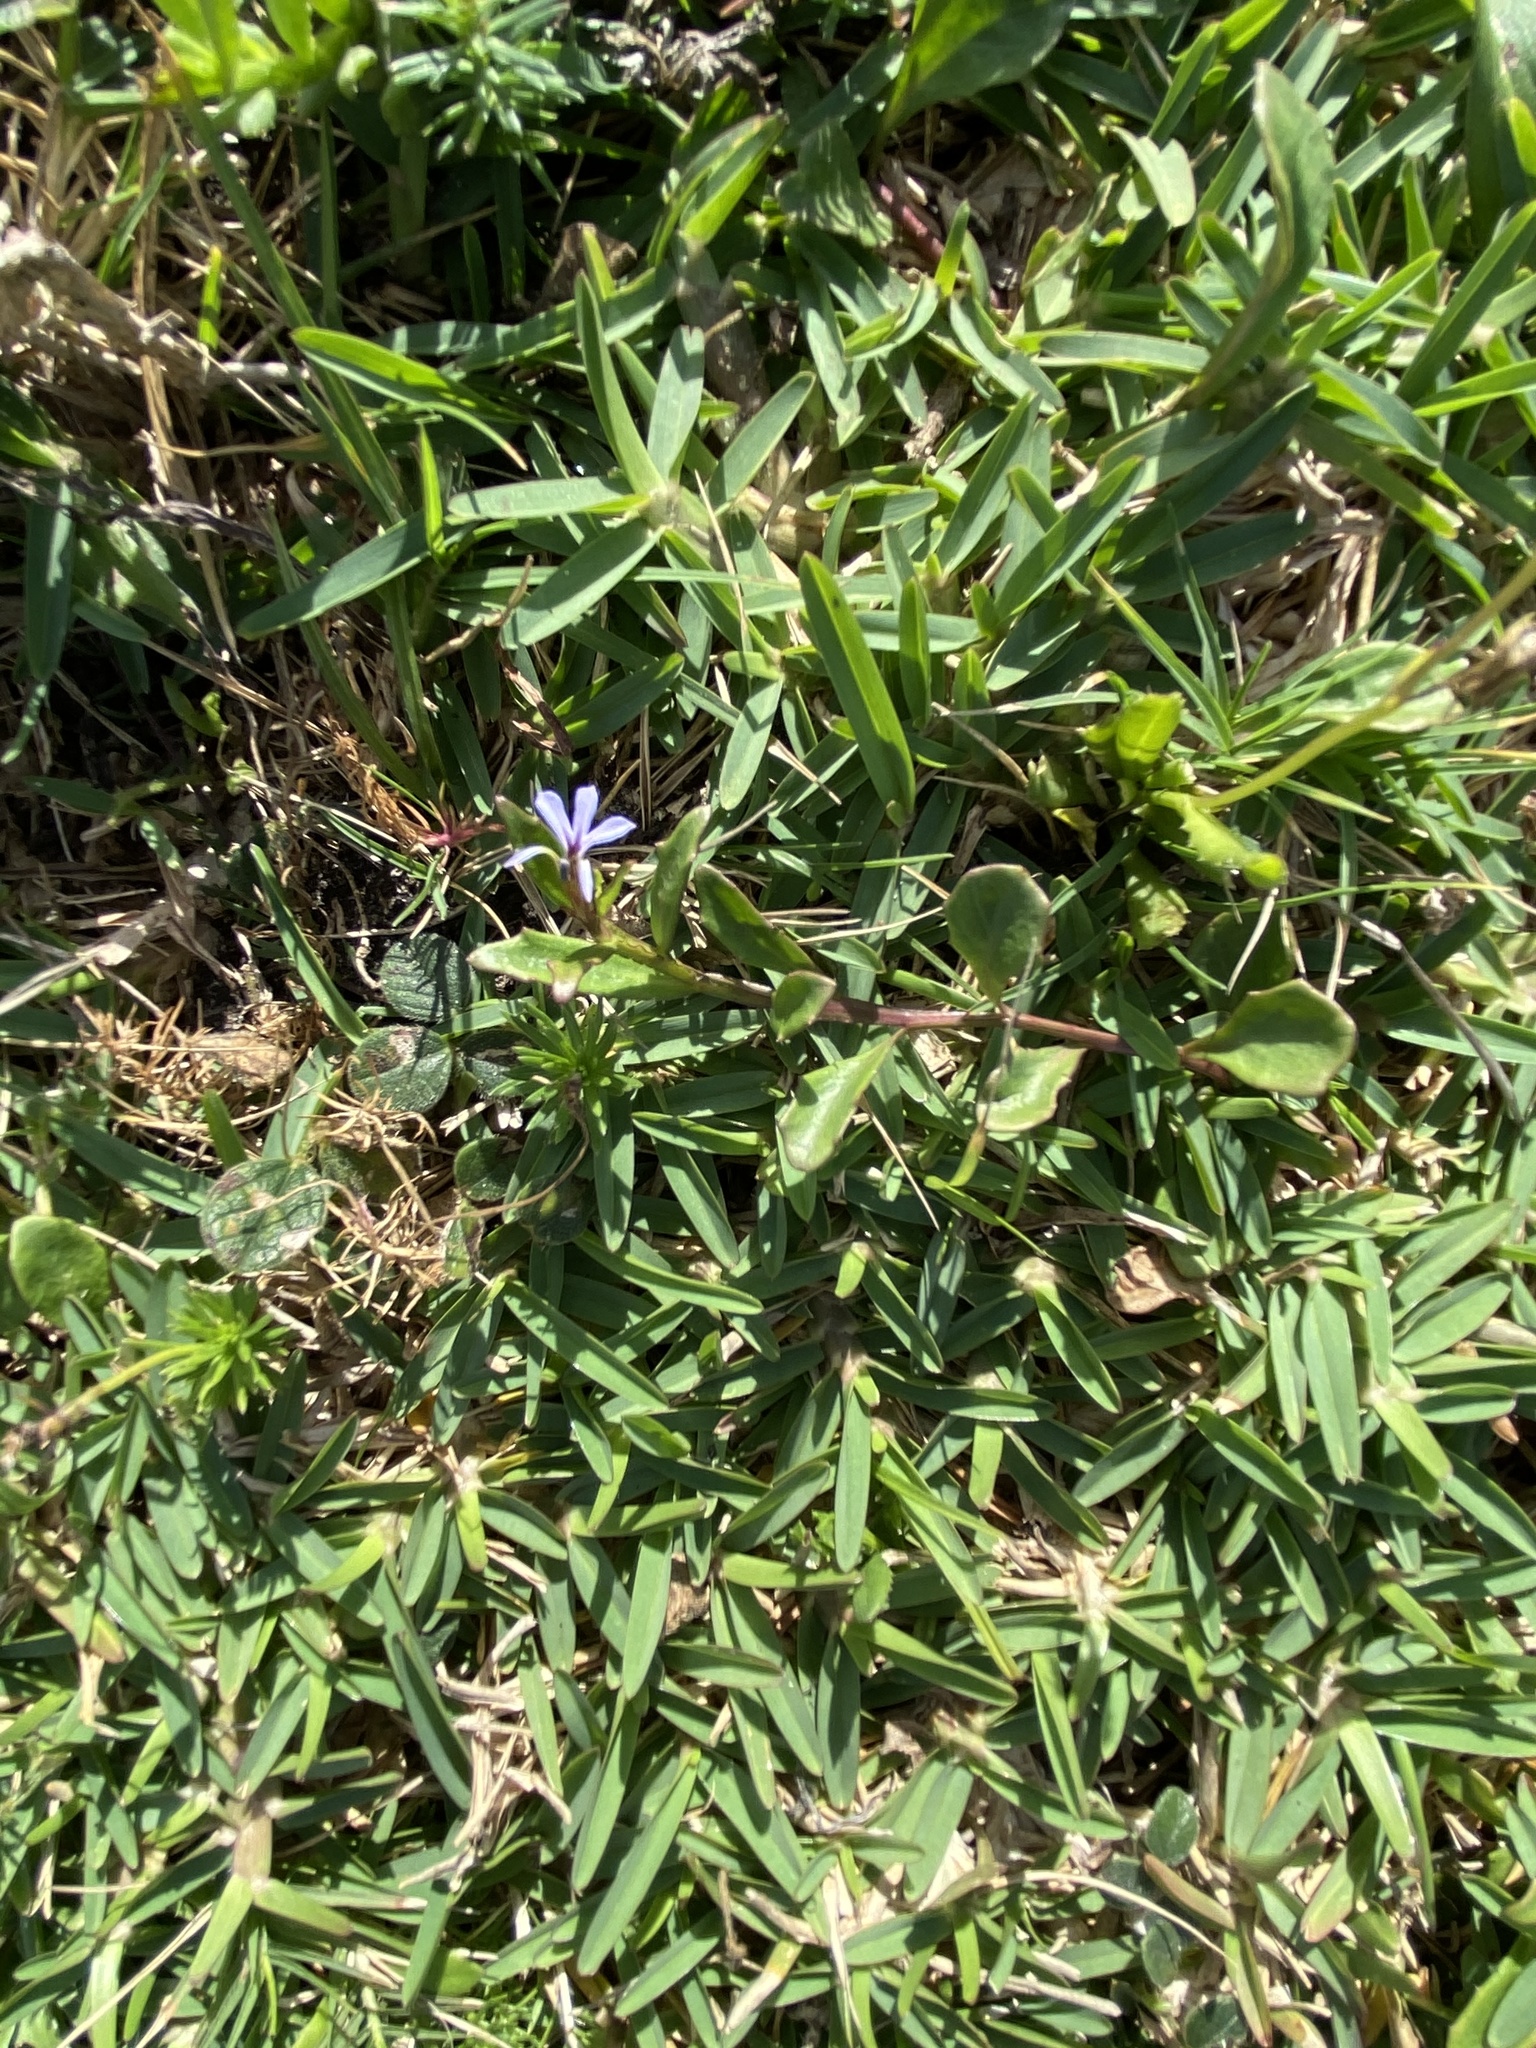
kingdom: Plantae
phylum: Tracheophyta
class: Magnoliopsida
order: Asterales
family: Campanulaceae
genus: Lobelia
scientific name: Lobelia anceps
